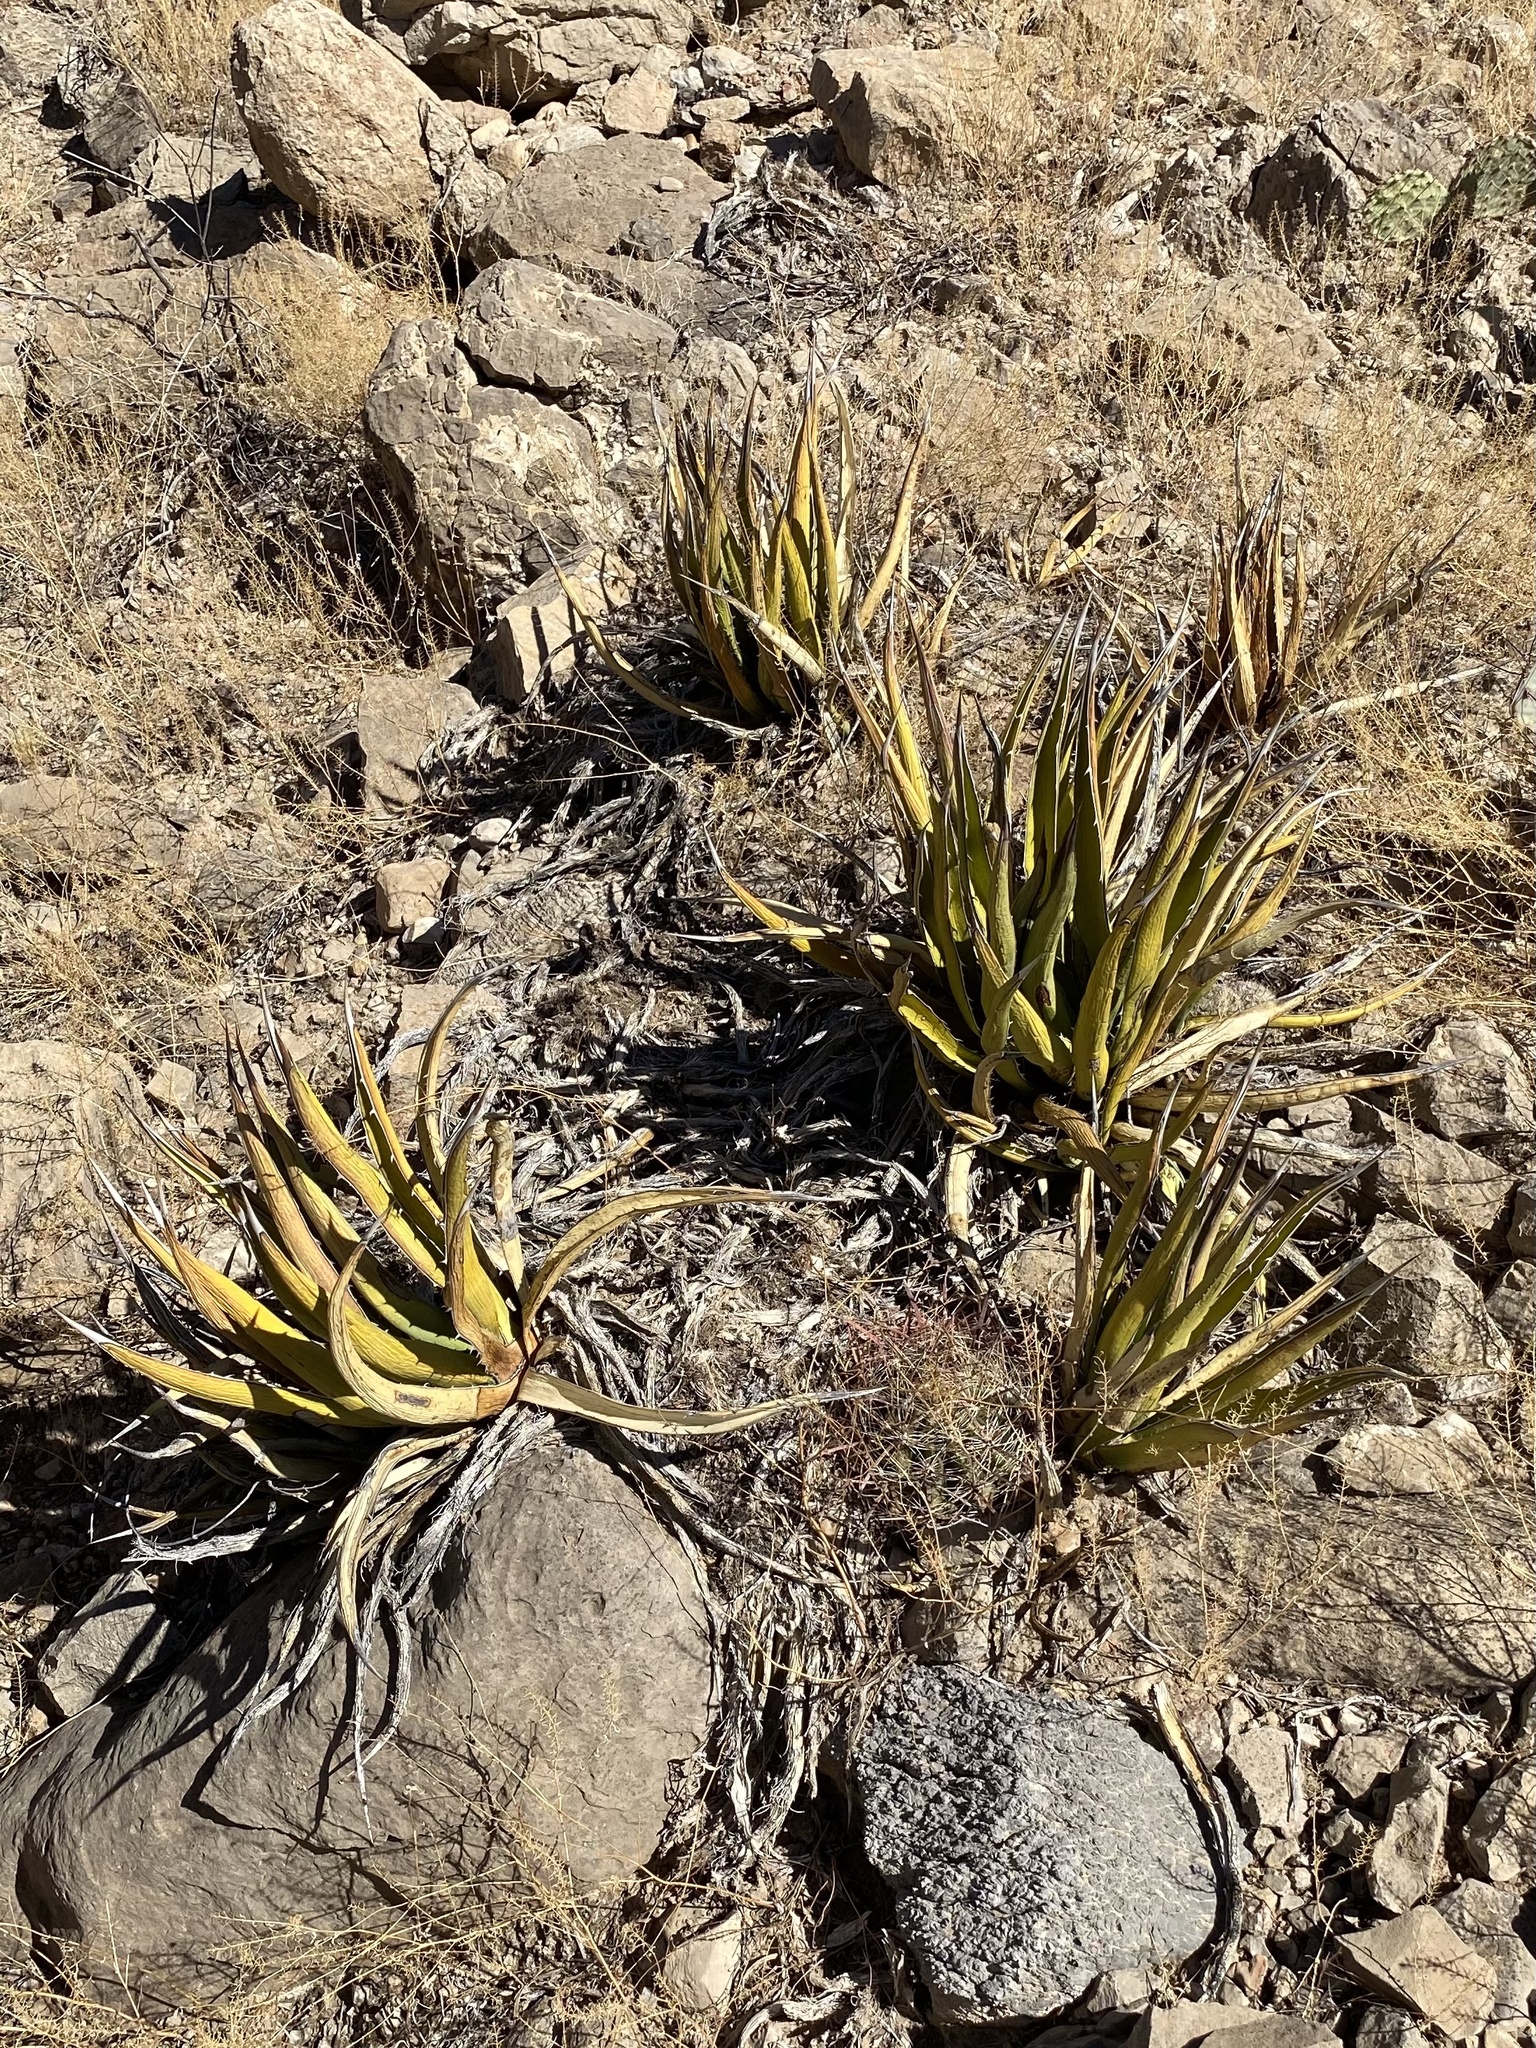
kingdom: Plantae
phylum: Tracheophyta
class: Liliopsida
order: Asparagales
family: Asparagaceae
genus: Agave
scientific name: Agave lechuguilla
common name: Lecheguilla agave
